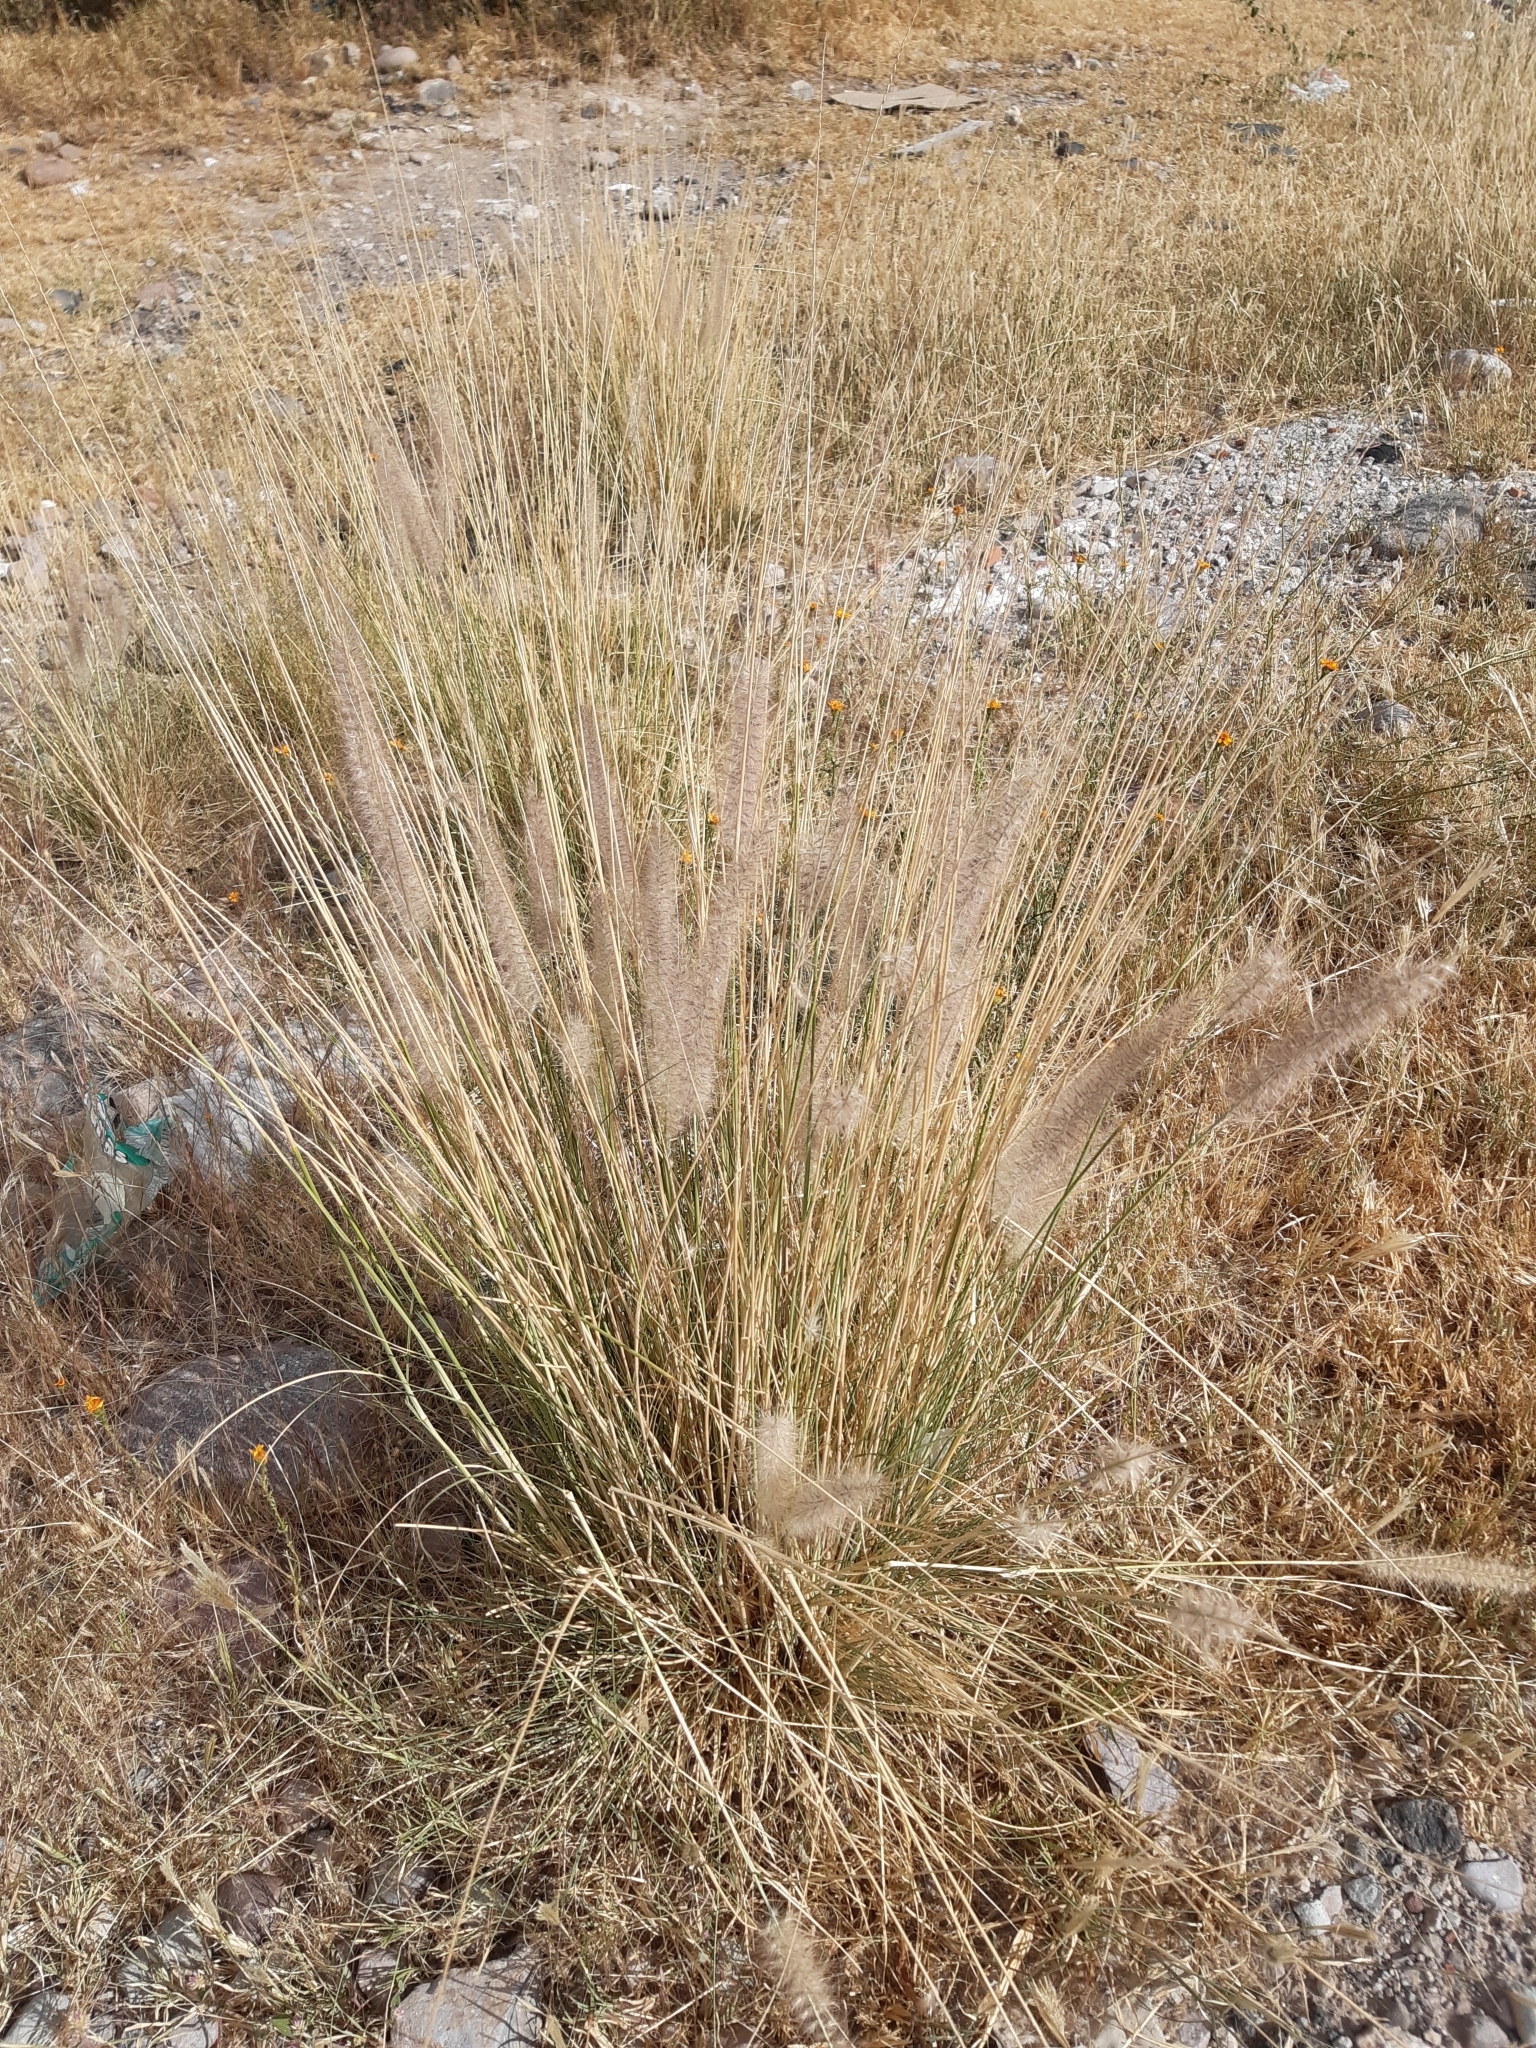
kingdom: Plantae
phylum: Tracheophyta
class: Liliopsida
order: Poales
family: Poaceae
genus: Cenchrus
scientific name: Cenchrus setaceus
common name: Crimson fountaingrass
